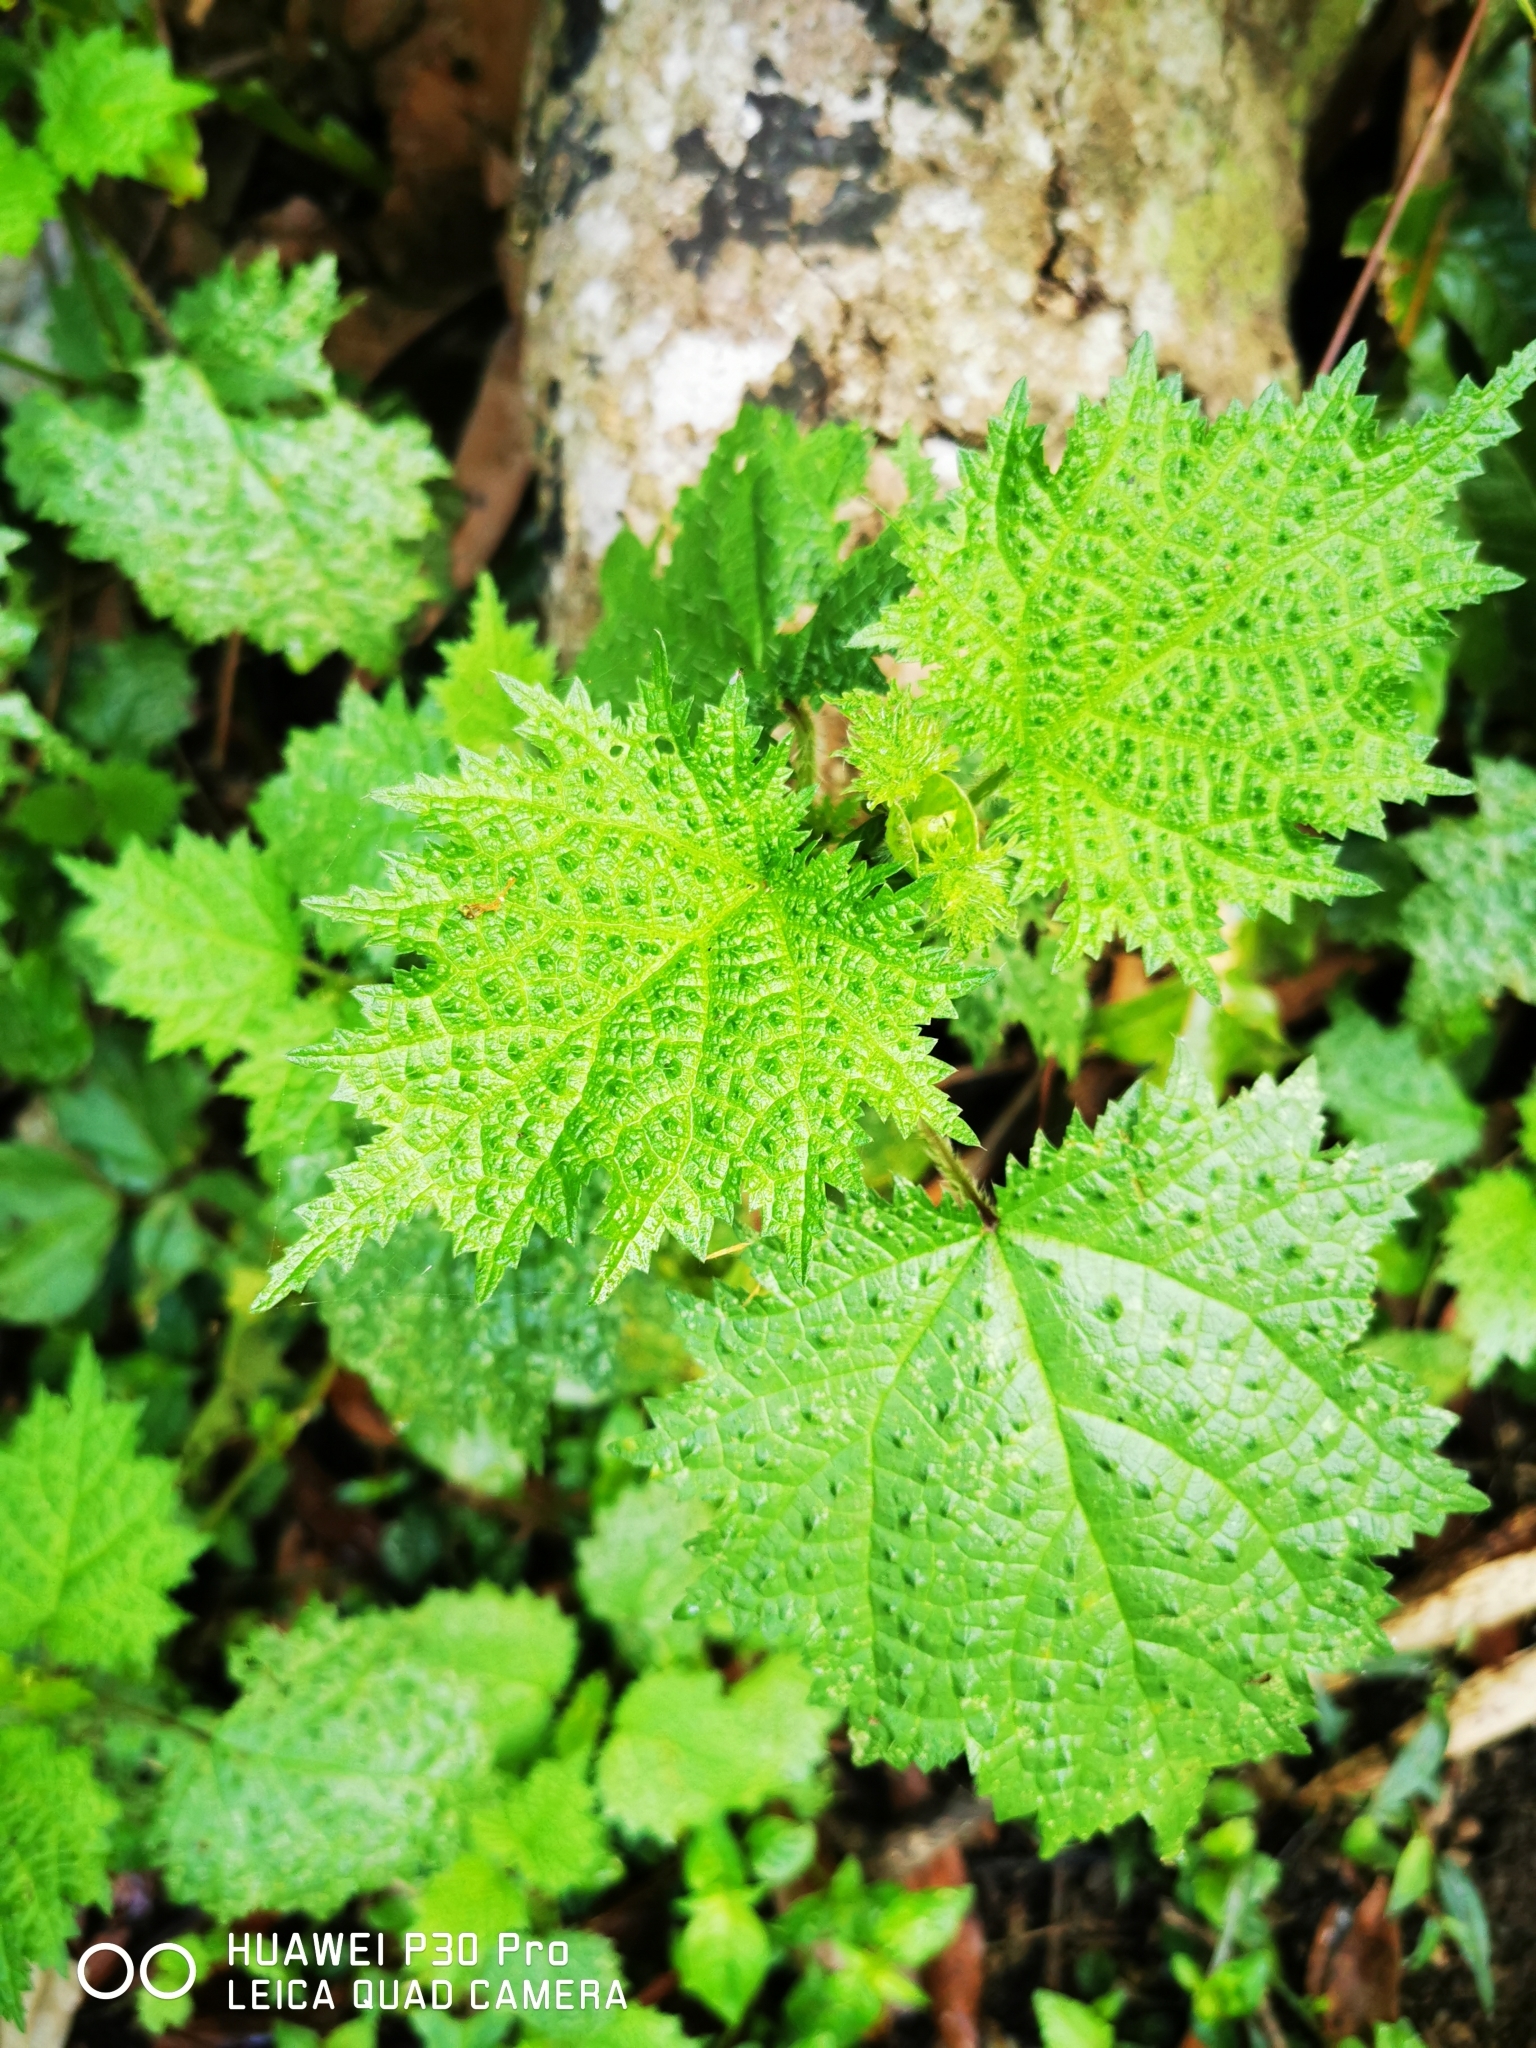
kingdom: Plantae
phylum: Tracheophyta
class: Magnoliopsida
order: Rosales
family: Urticaceae
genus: Urtica
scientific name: Urtica thunbergiana
